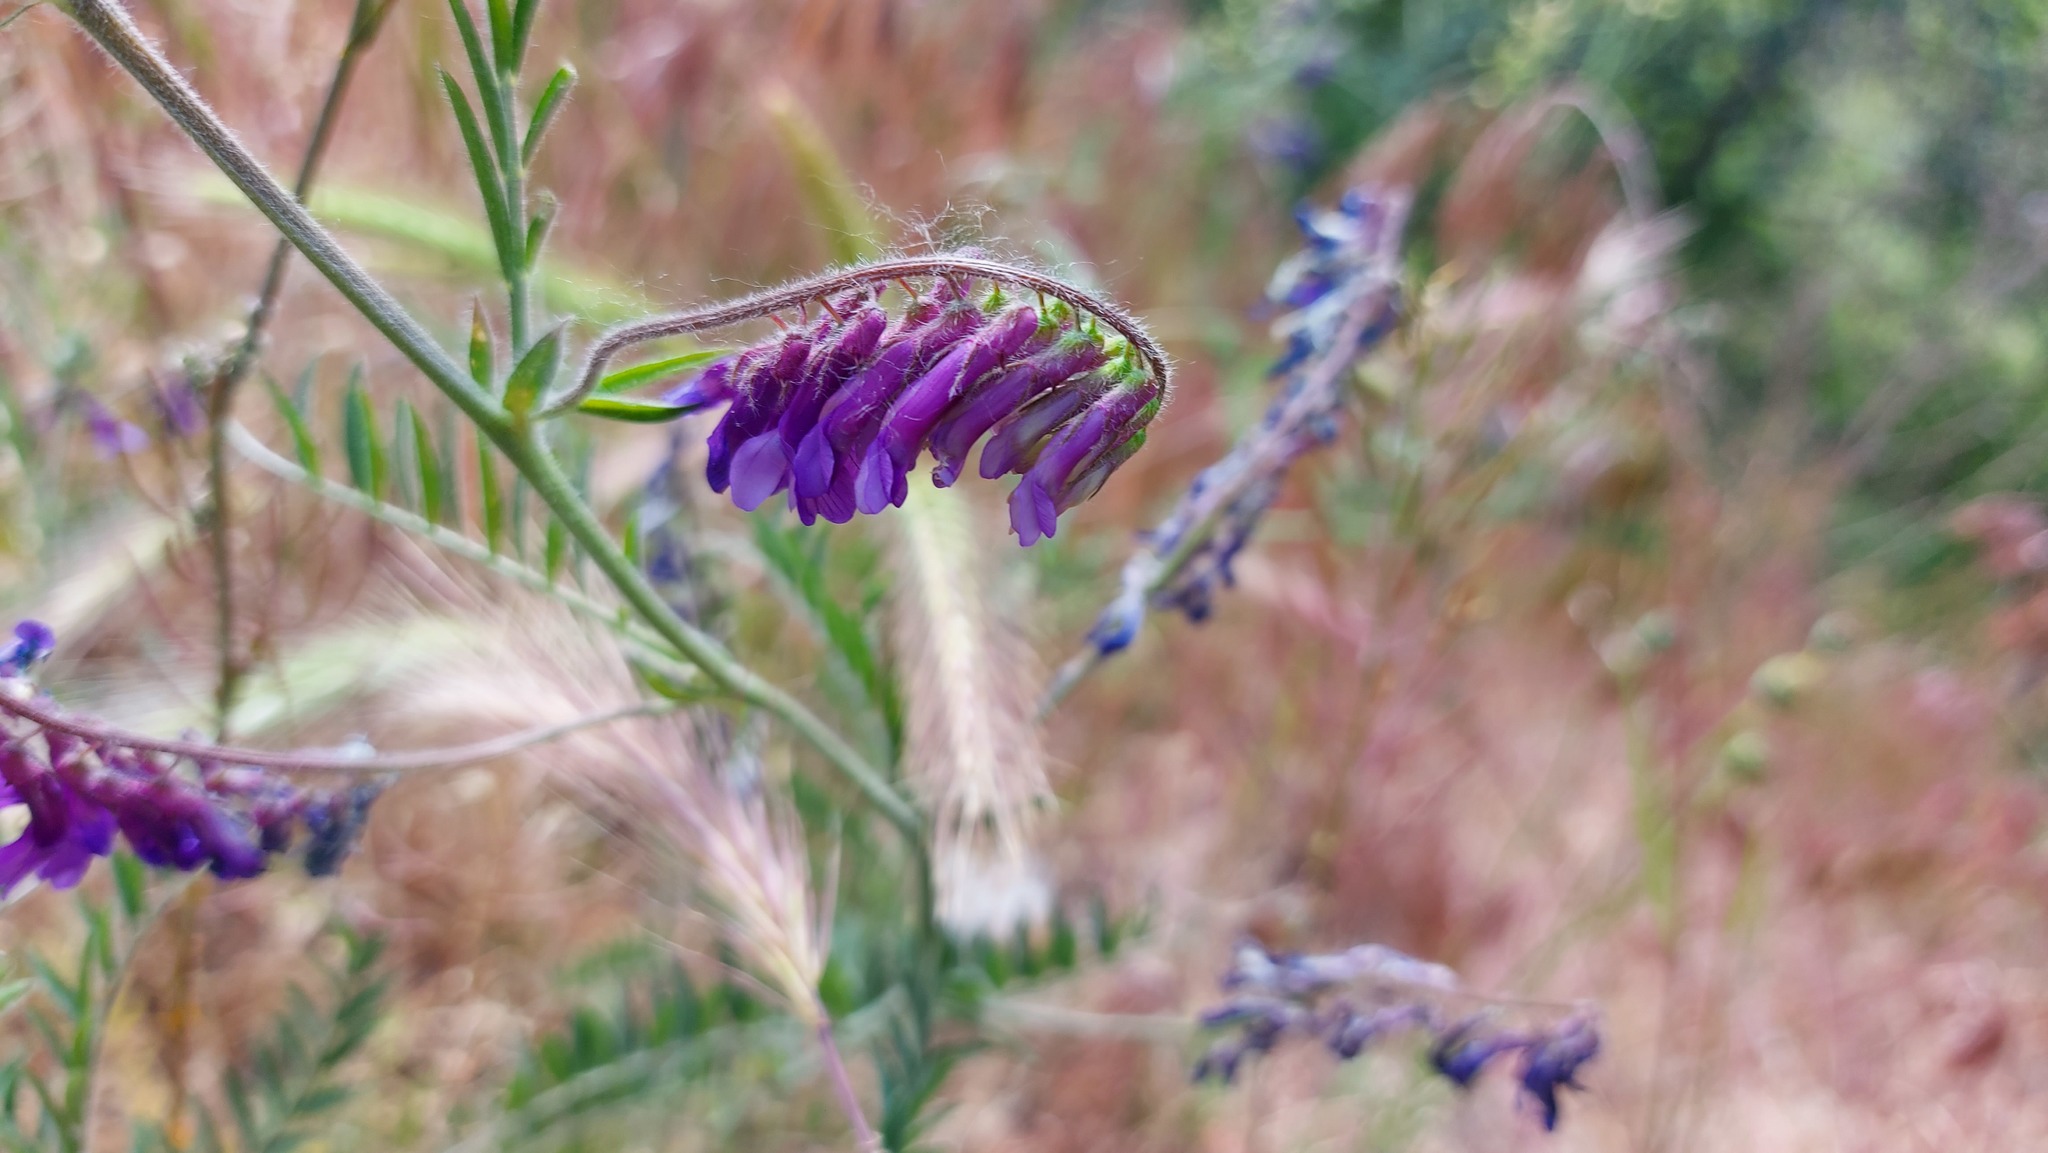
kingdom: Plantae
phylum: Tracheophyta
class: Magnoliopsida
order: Fabales
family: Fabaceae
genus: Vicia
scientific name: Vicia villosa
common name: Fodder vetch
